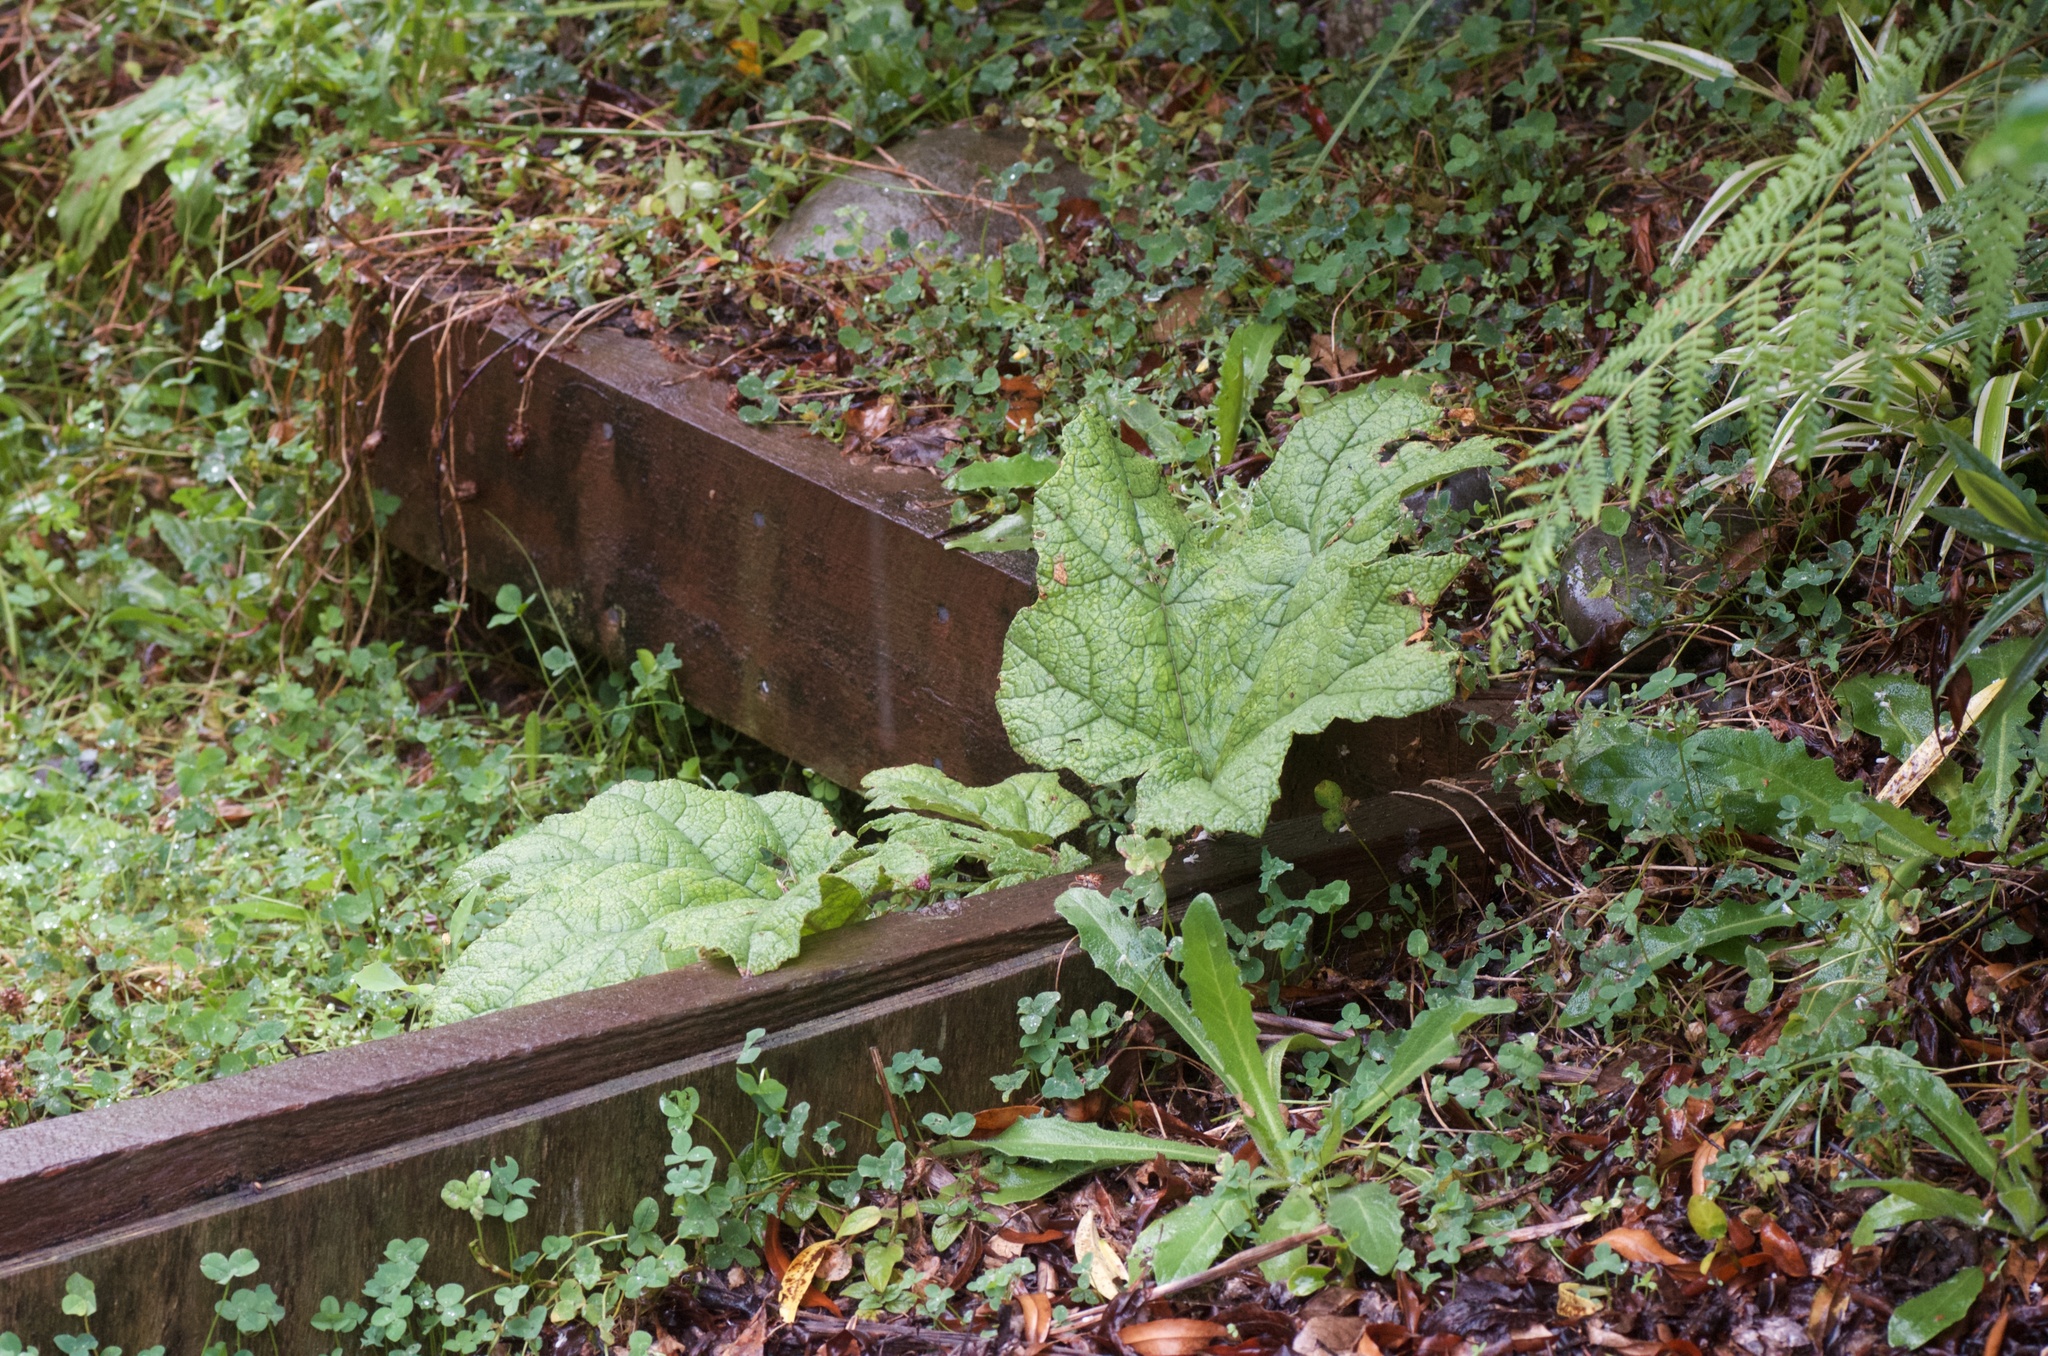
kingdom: Plantae
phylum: Tracheophyta
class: Magnoliopsida
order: Gunnerales
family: Gunneraceae
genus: Gunnera
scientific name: Gunnera tinctoria
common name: Giant-rhubarb
